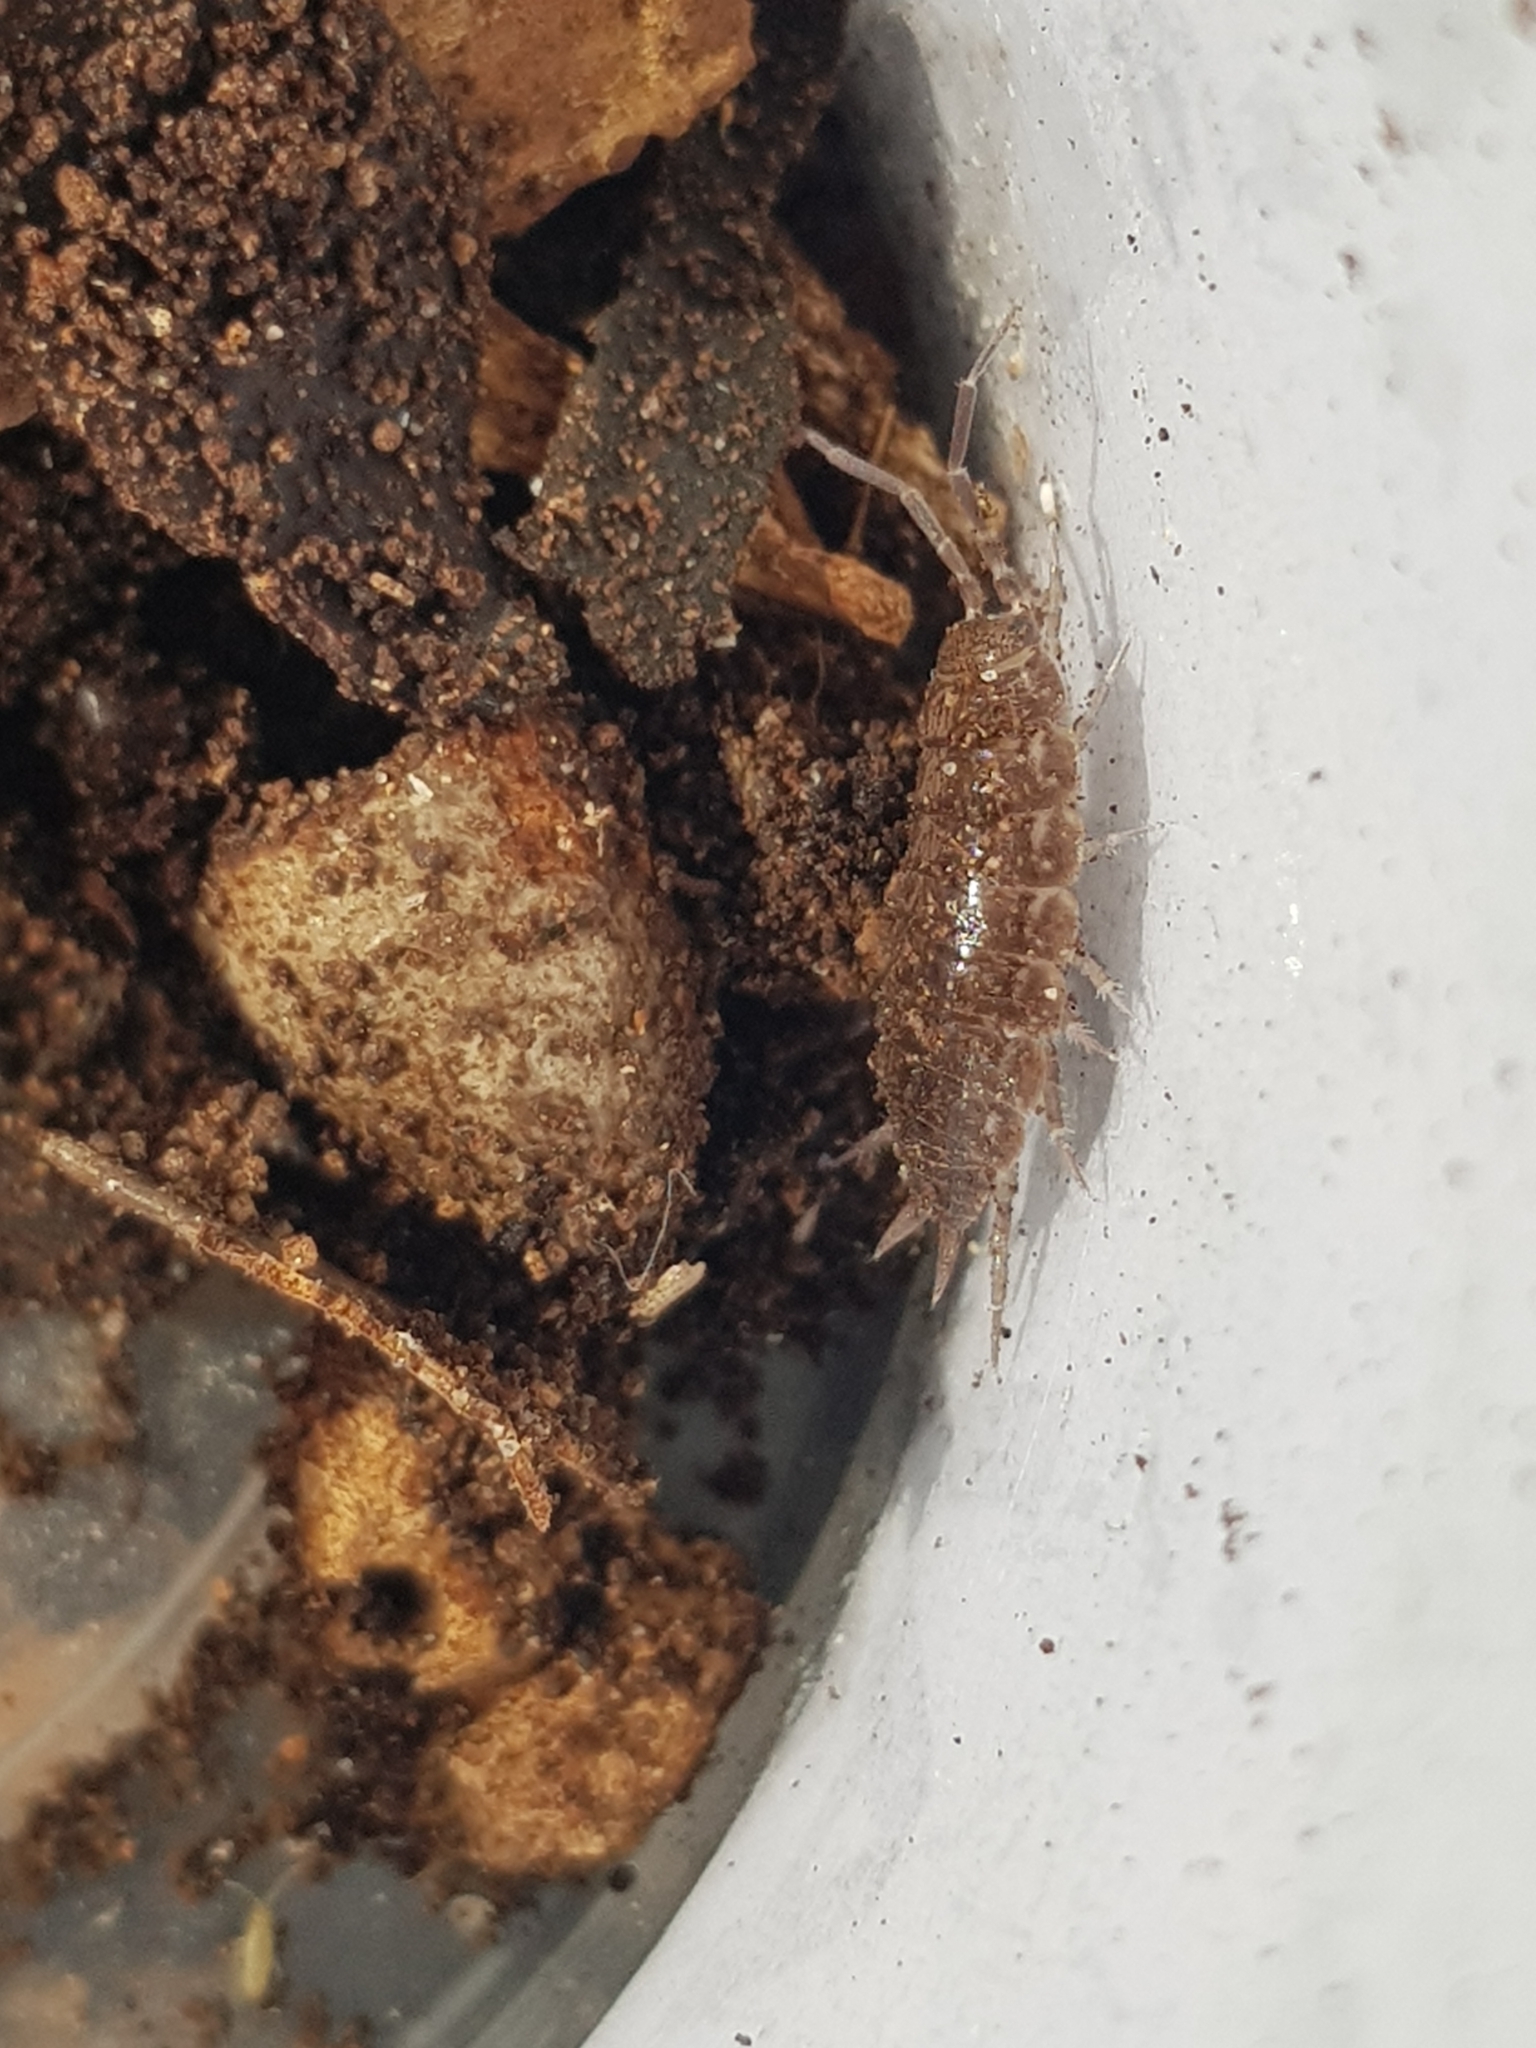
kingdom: Animalia
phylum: Arthropoda
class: Malacostraca
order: Isopoda
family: Porcellionidae
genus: Porcellionides
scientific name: Porcellionides sexfasciatus
